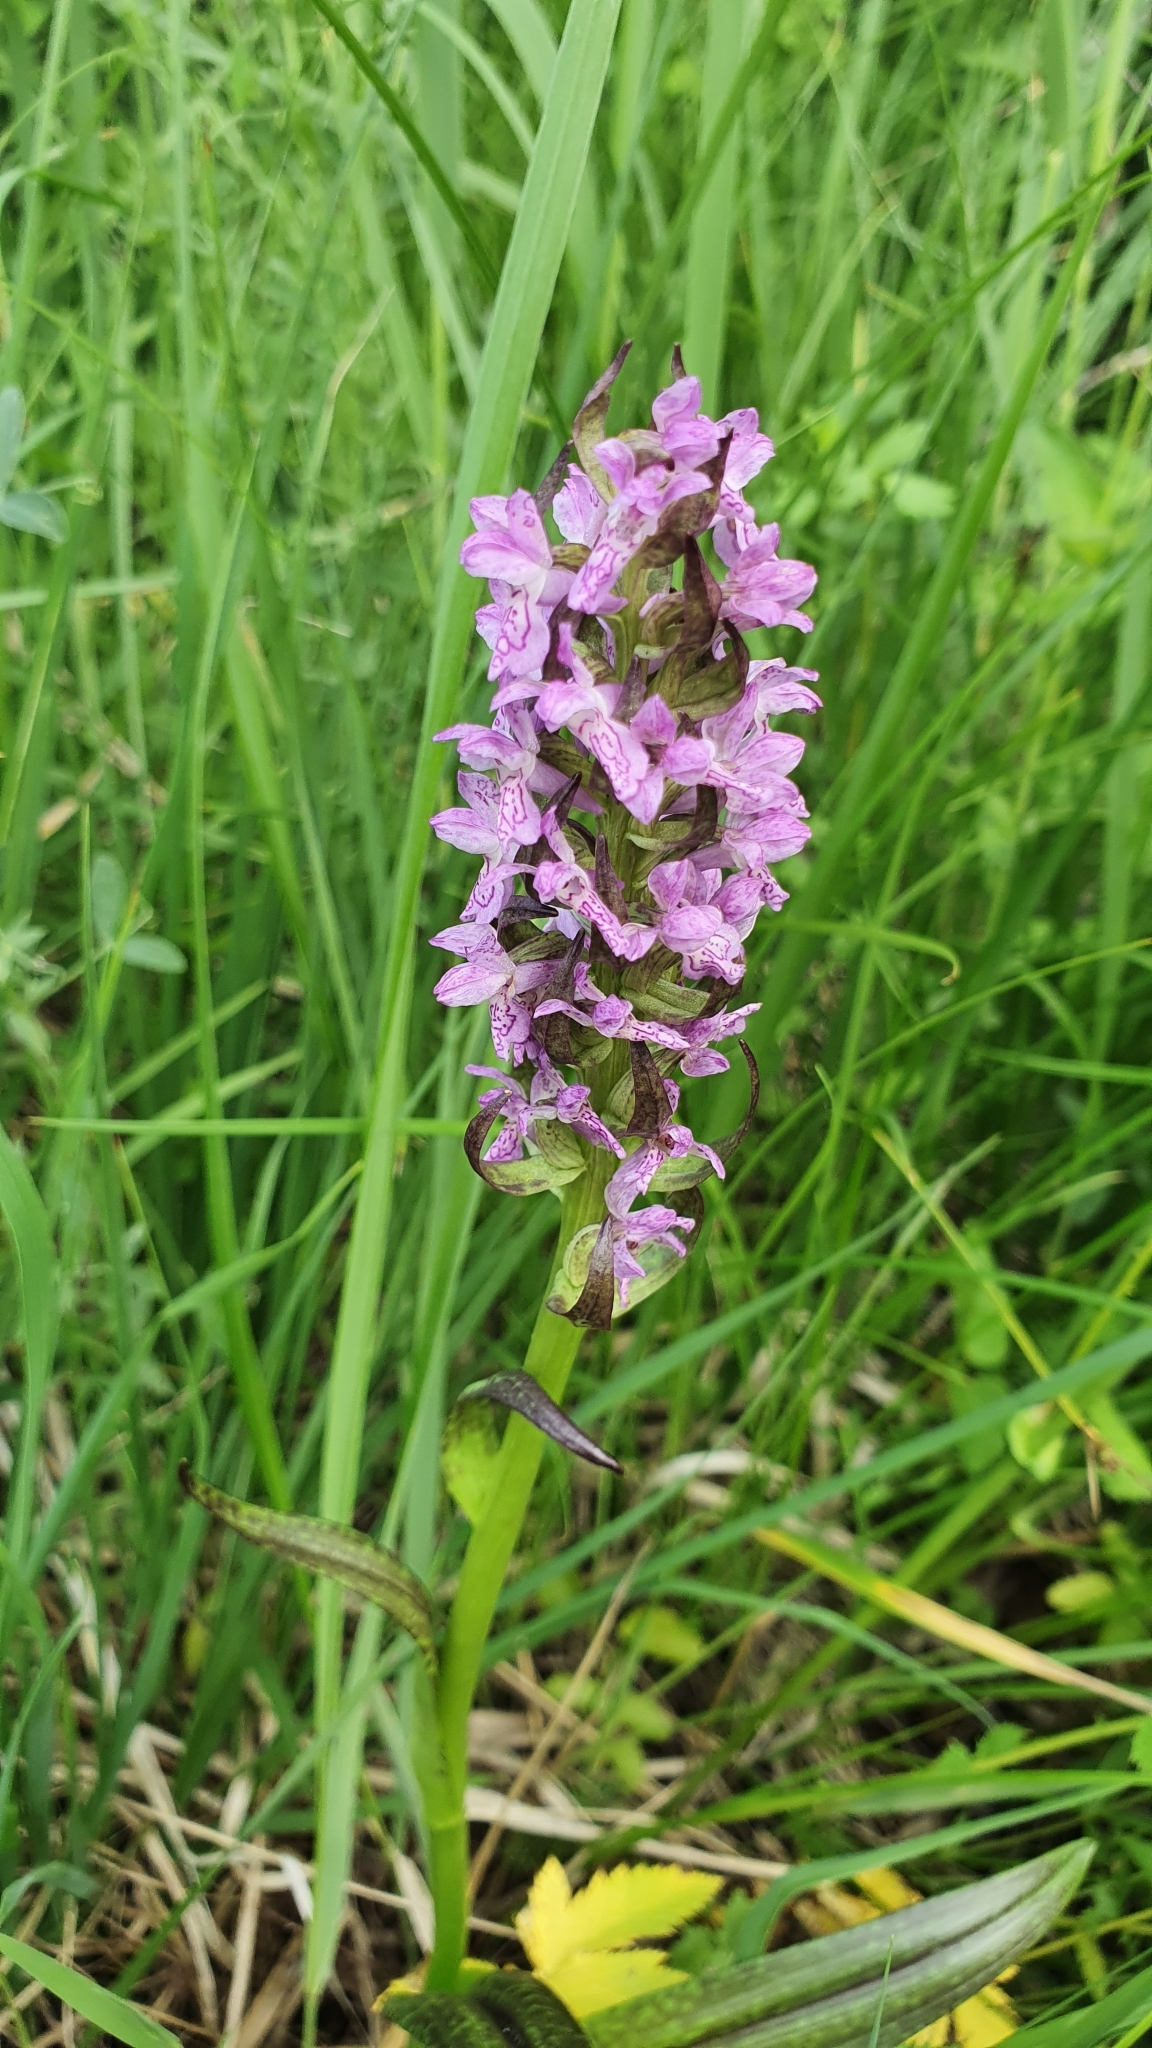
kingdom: Plantae
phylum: Tracheophyta
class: Liliopsida
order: Asparagales
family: Orchidaceae
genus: Dactylorhiza
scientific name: Dactylorhiza incarnata
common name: Early marsh-orchid
